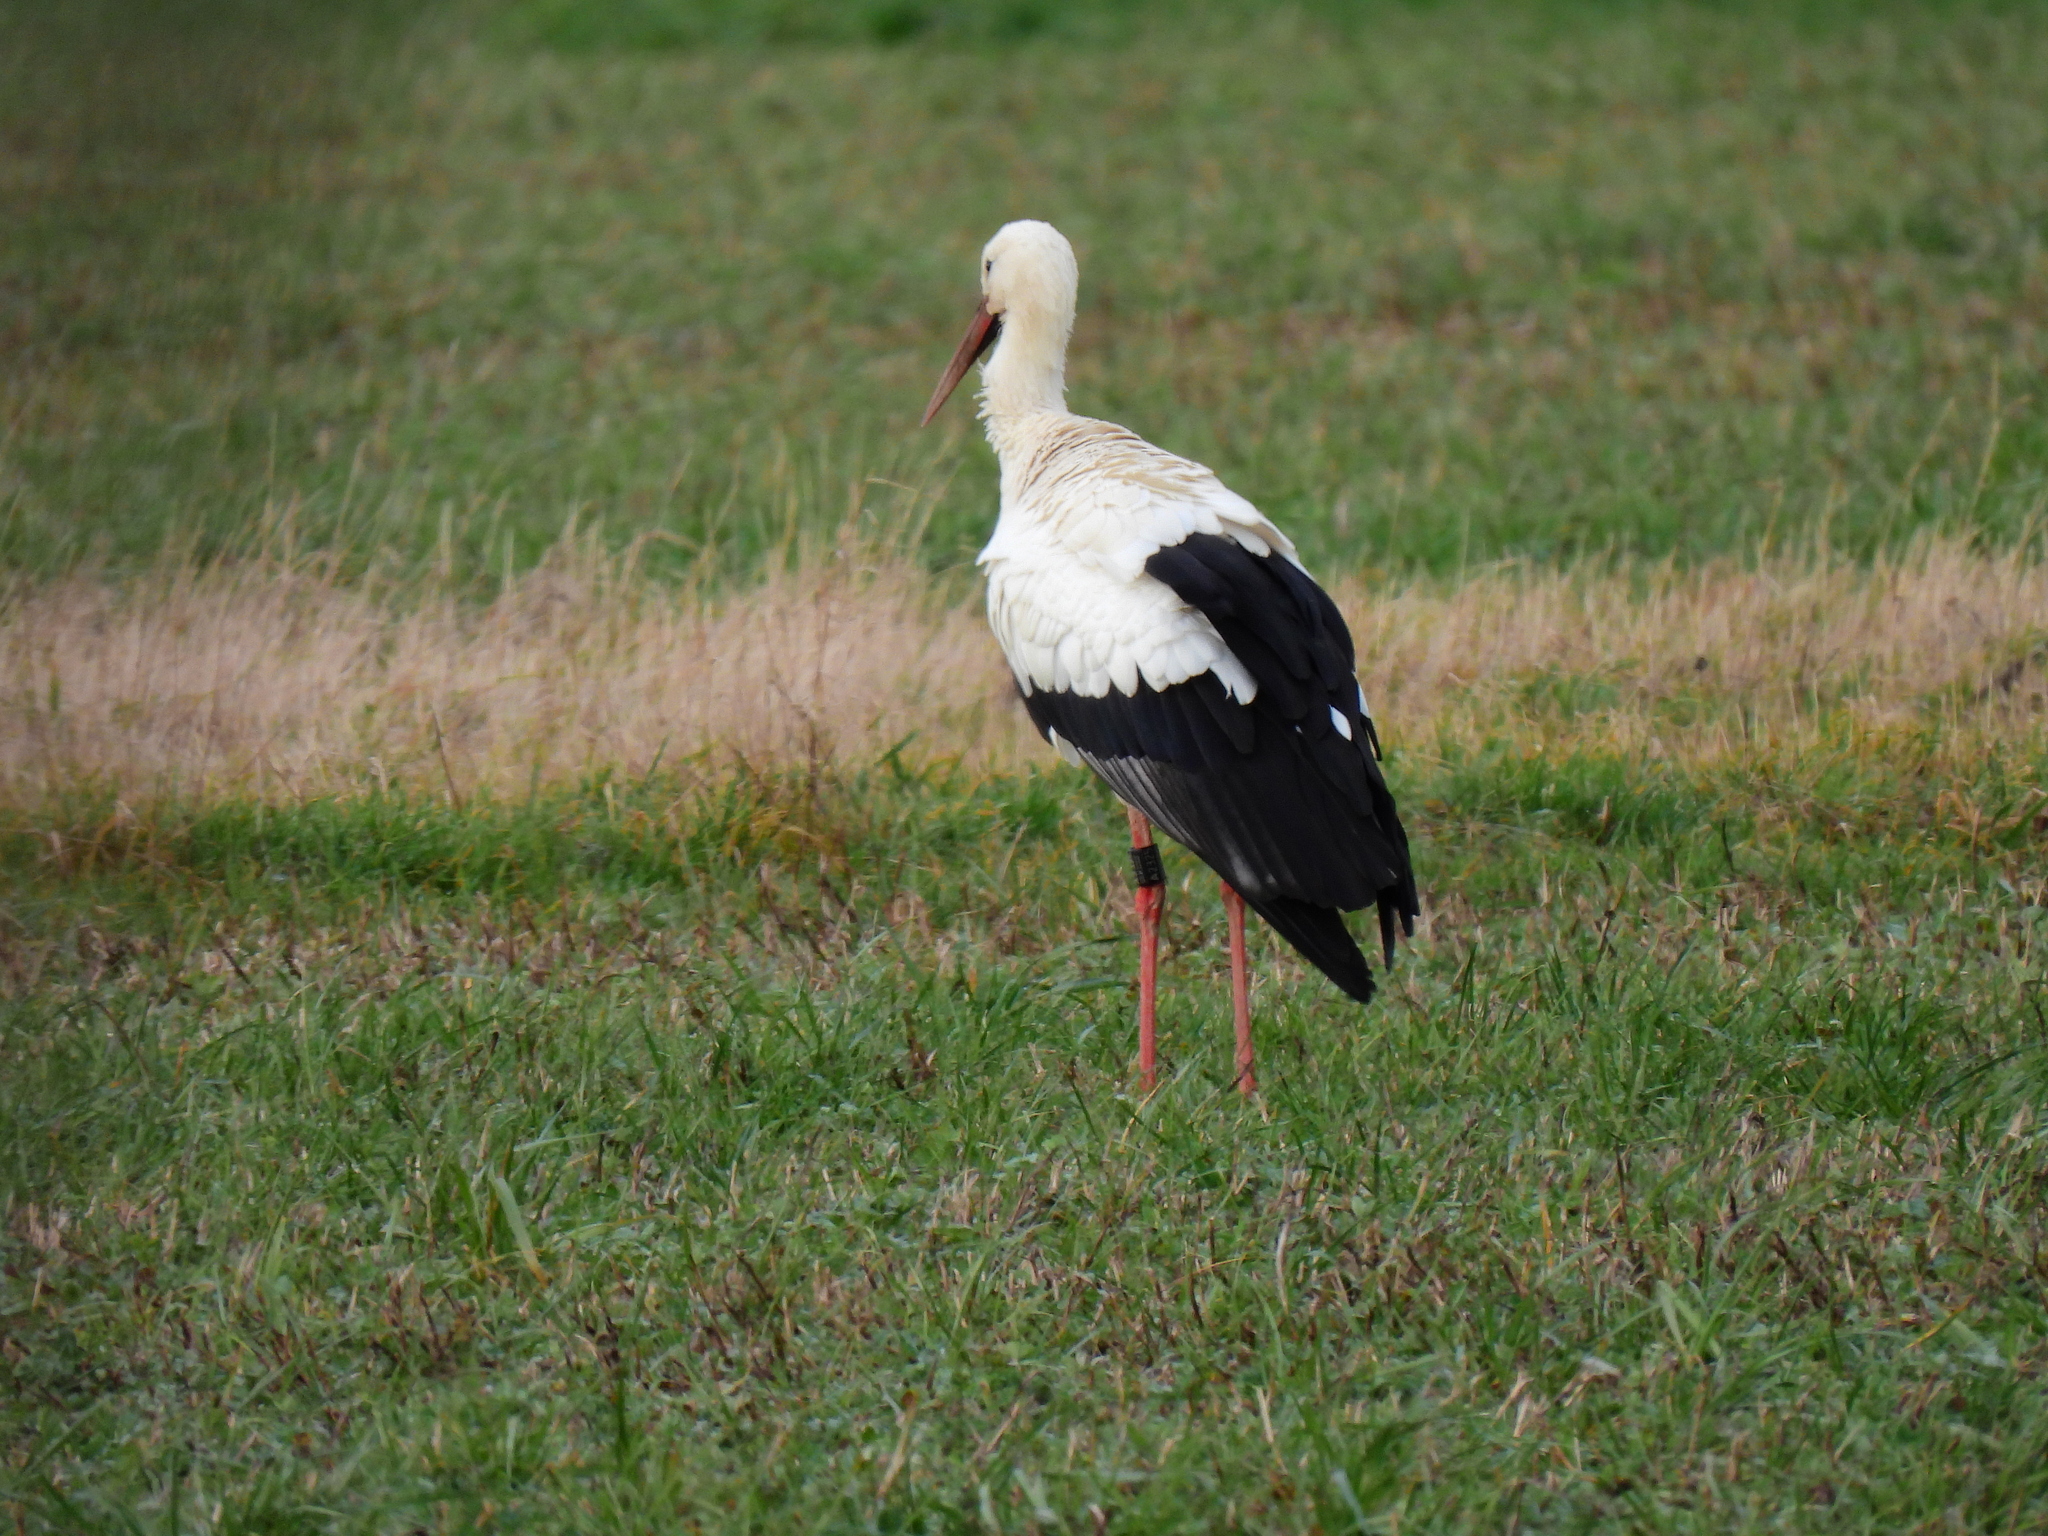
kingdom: Animalia
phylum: Chordata
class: Aves
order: Ciconiiformes
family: Ciconiidae
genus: Ciconia
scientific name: Ciconia ciconia
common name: White stork
